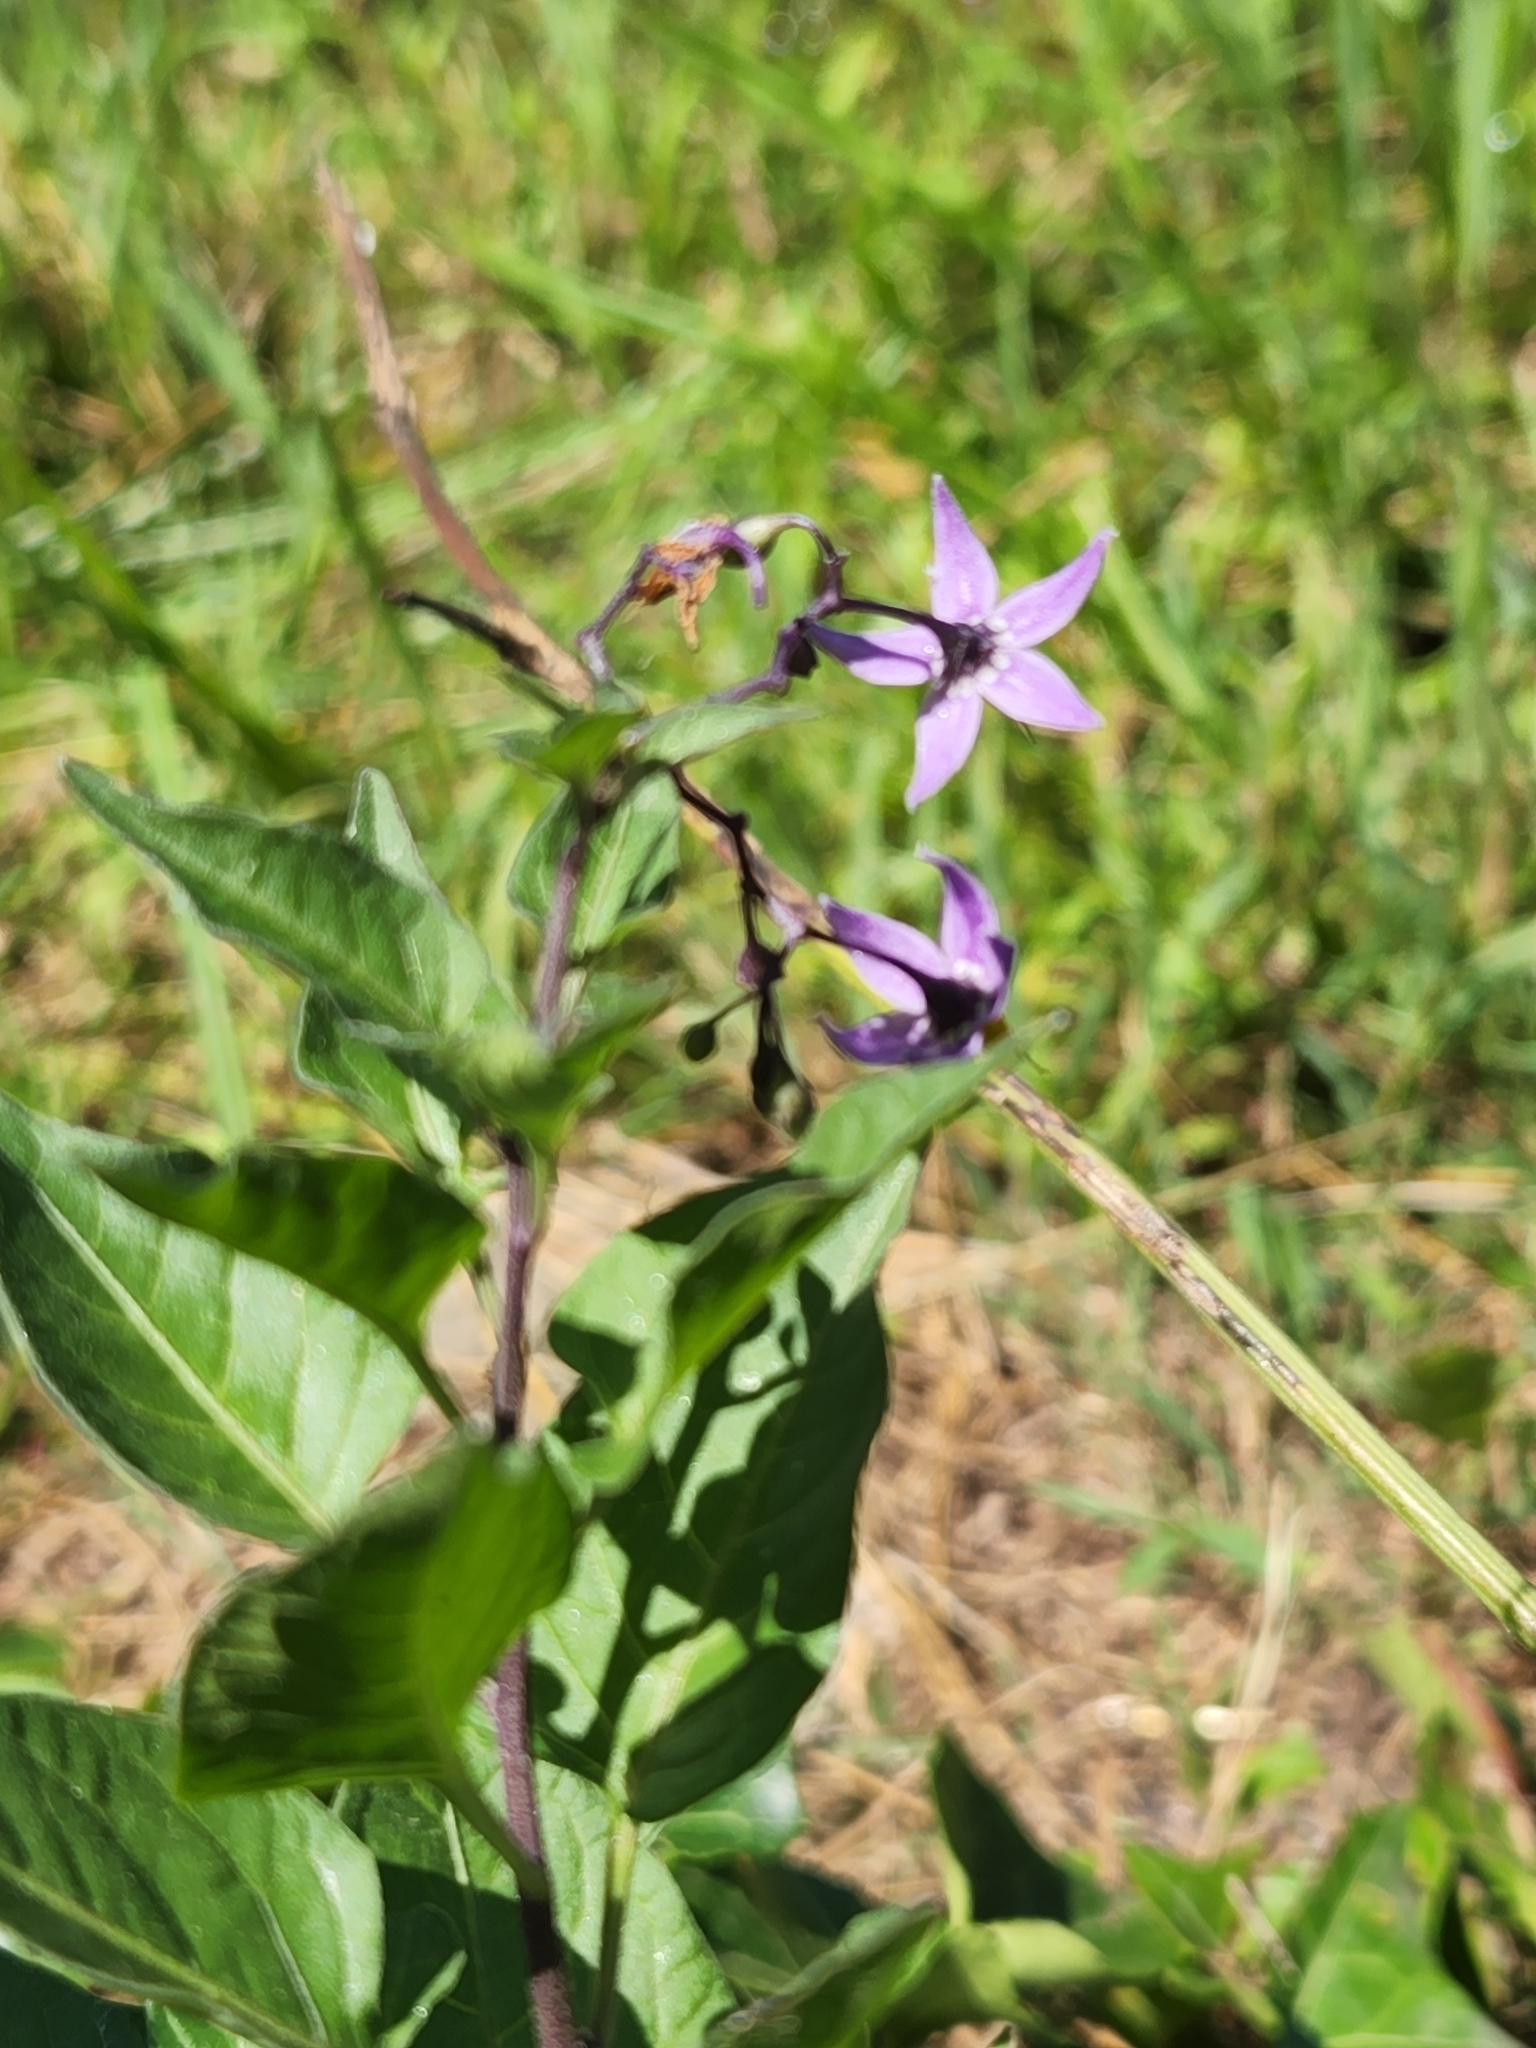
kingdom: Plantae
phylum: Tracheophyta
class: Magnoliopsida
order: Solanales
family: Solanaceae
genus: Solanum
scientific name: Solanum dulcamara
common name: Climbing nightshade
